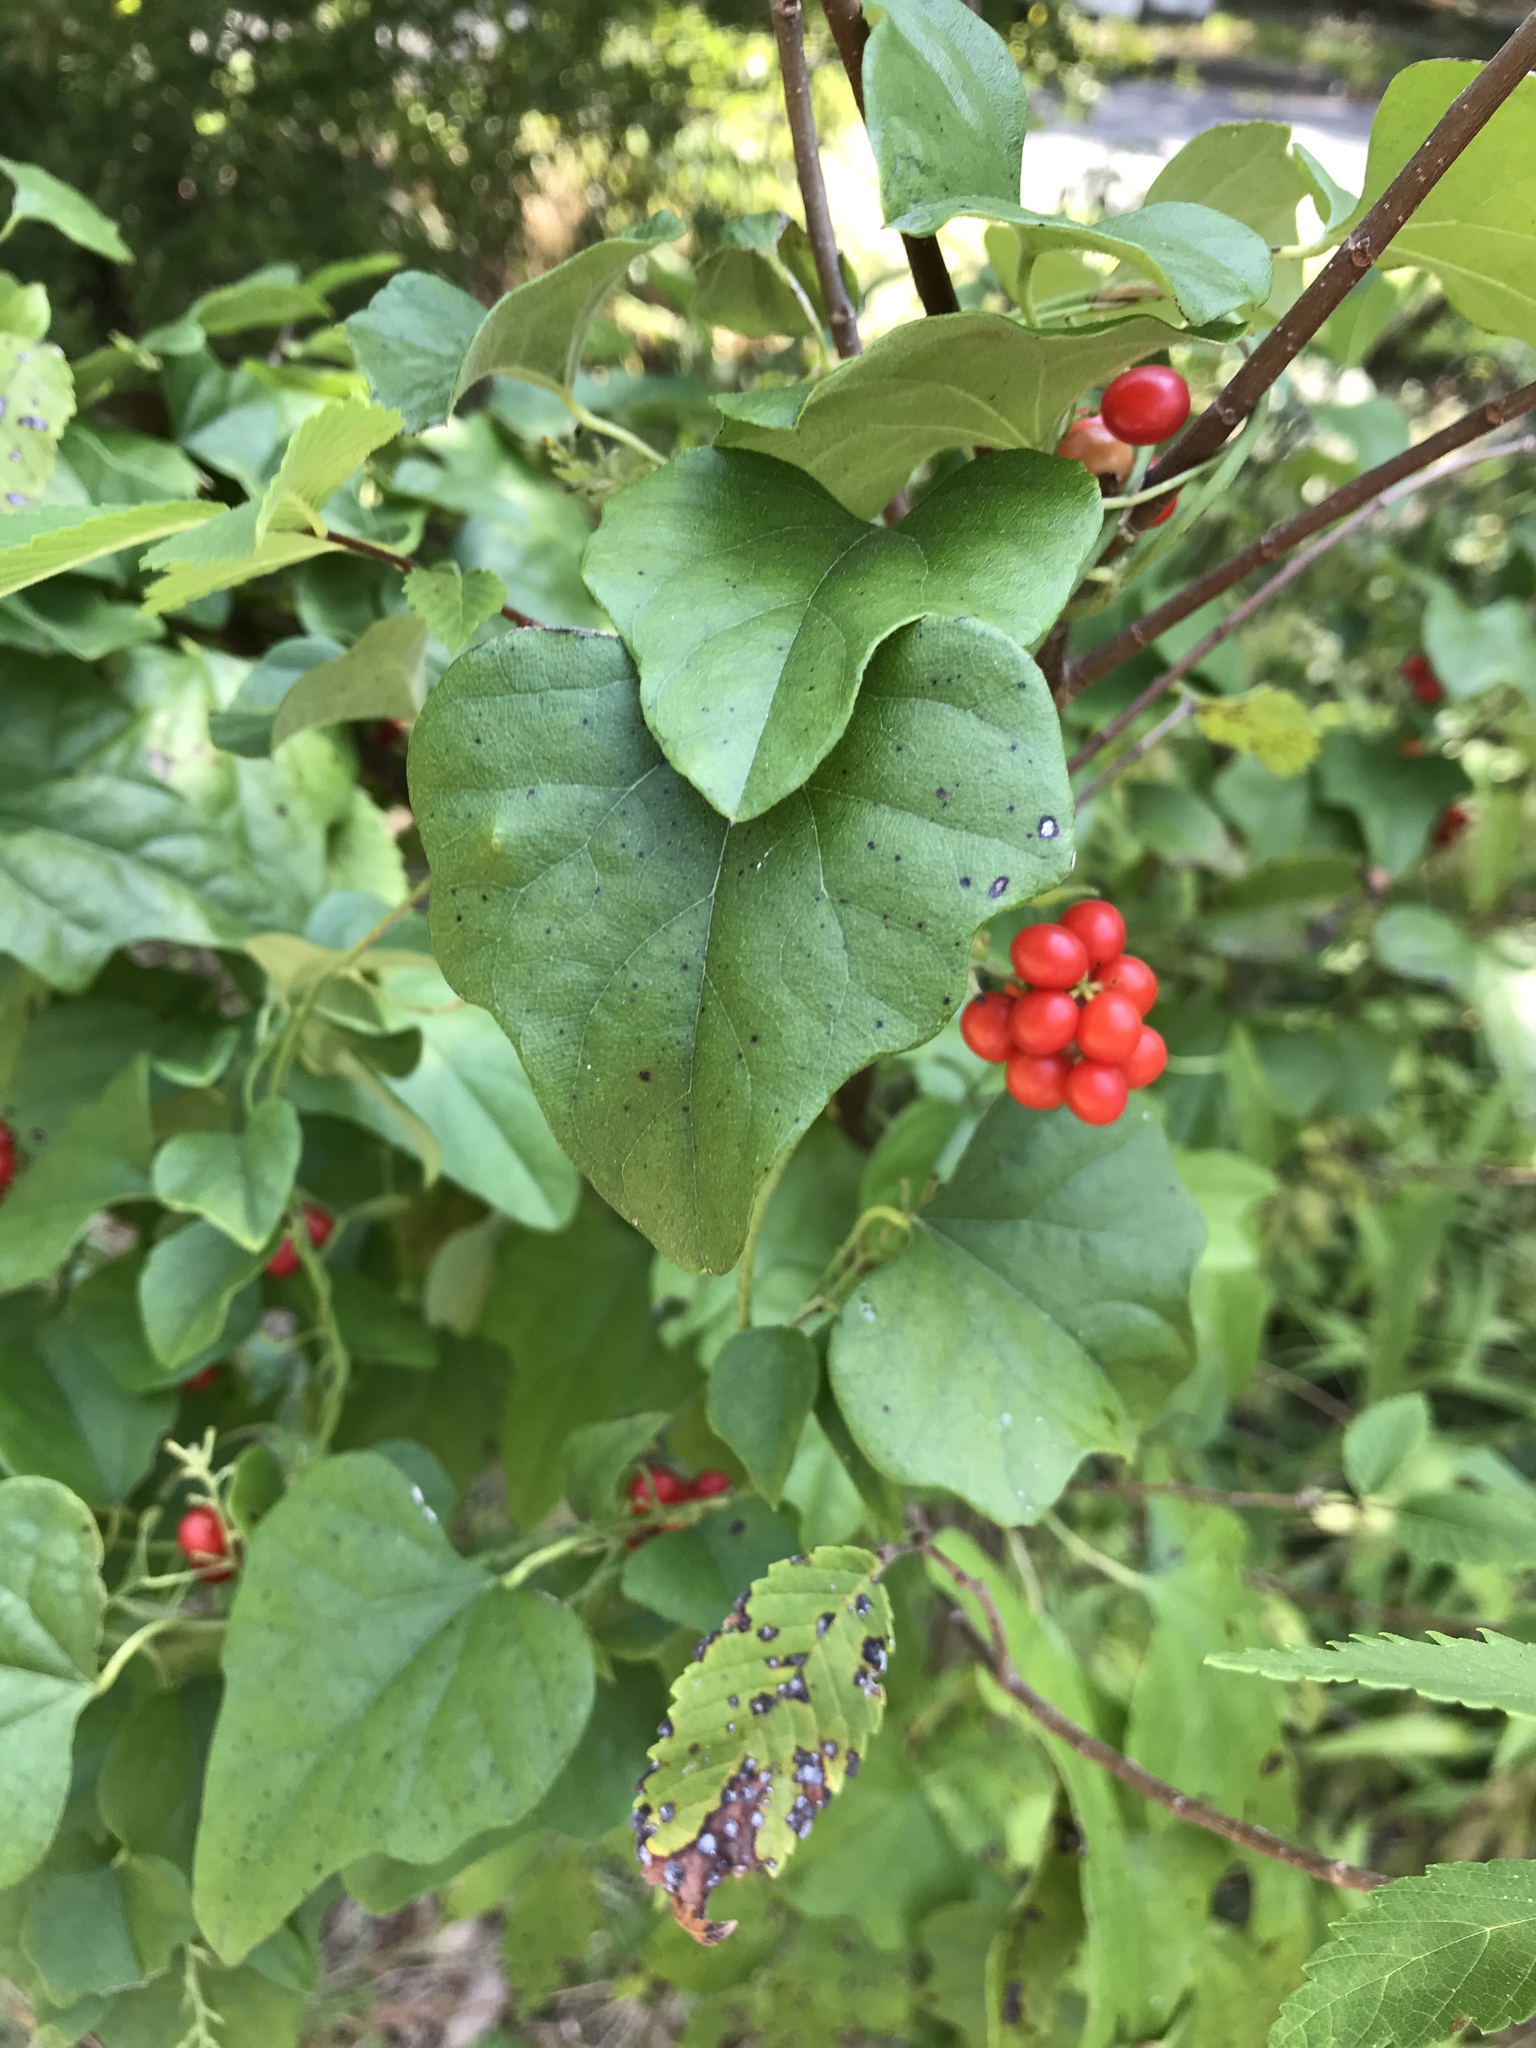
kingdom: Plantae
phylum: Tracheophyta
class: Magnoliopsida
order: Ranunculales
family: Menispermaceae
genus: Cocculus
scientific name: Cocculus carolinus
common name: Carolina moonseed
